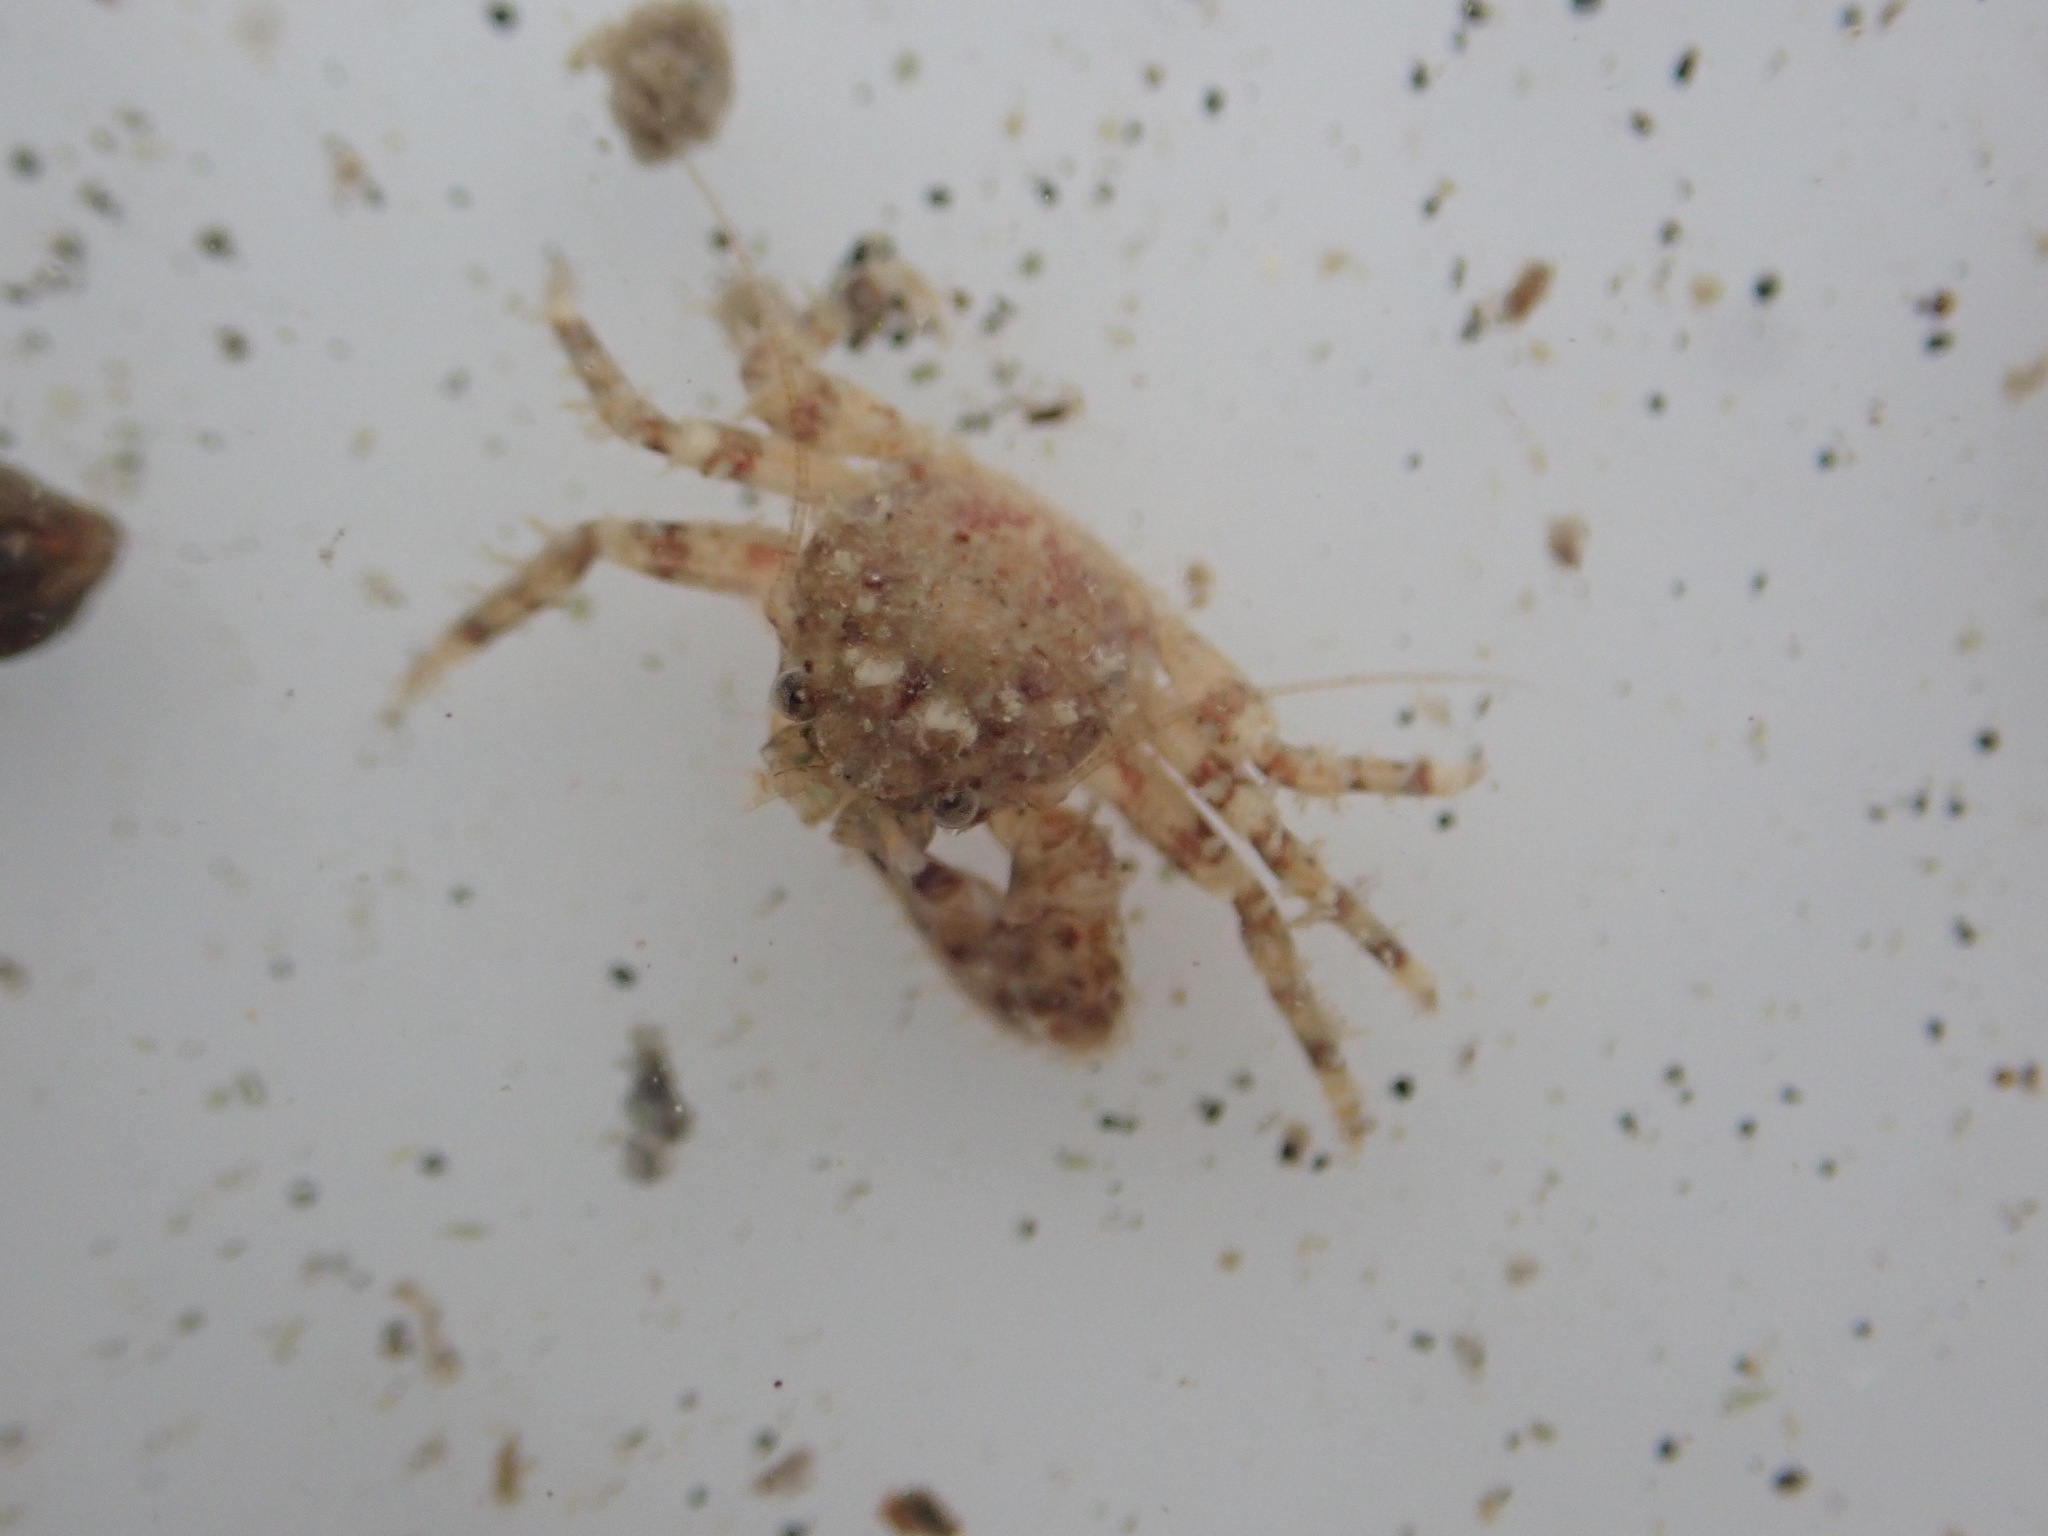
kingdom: Animalia
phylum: Arthropoda
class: Malacostraca
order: Decapoda
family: Porcellanidae
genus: Petrolisthes
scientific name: Petrolisthes novaezelandiae
